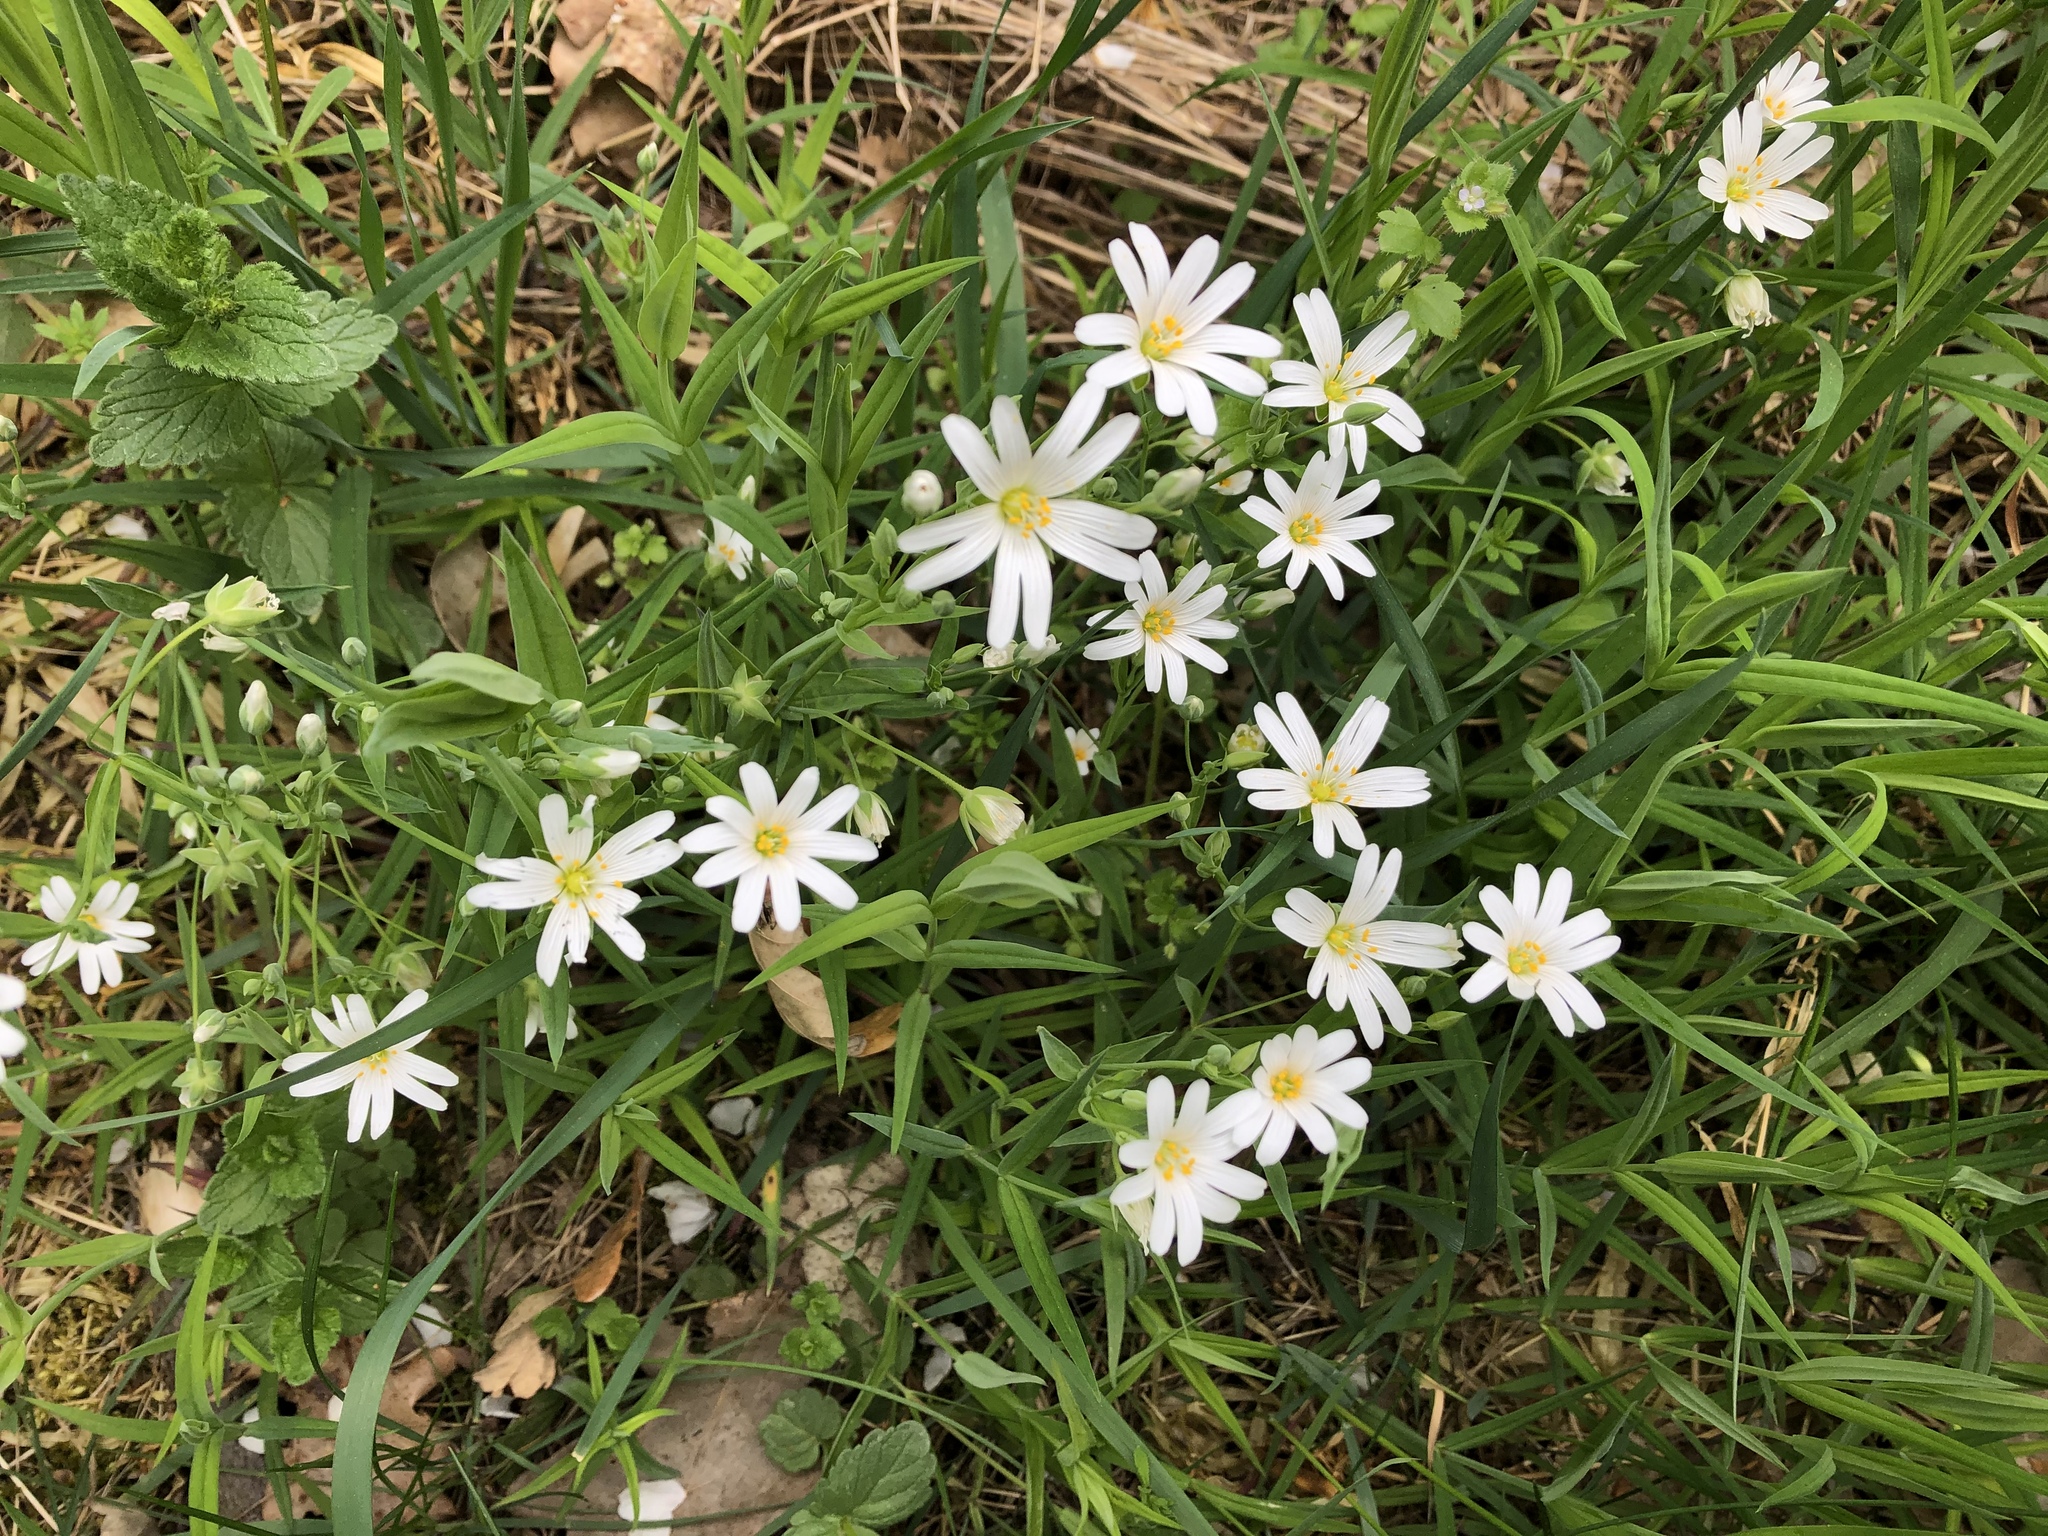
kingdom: Plantae
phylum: Tracheophyta
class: Magnoliopsida
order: Caryophyllales
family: Caryophyllaceae
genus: Rabelera
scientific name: Rabelera holostea
